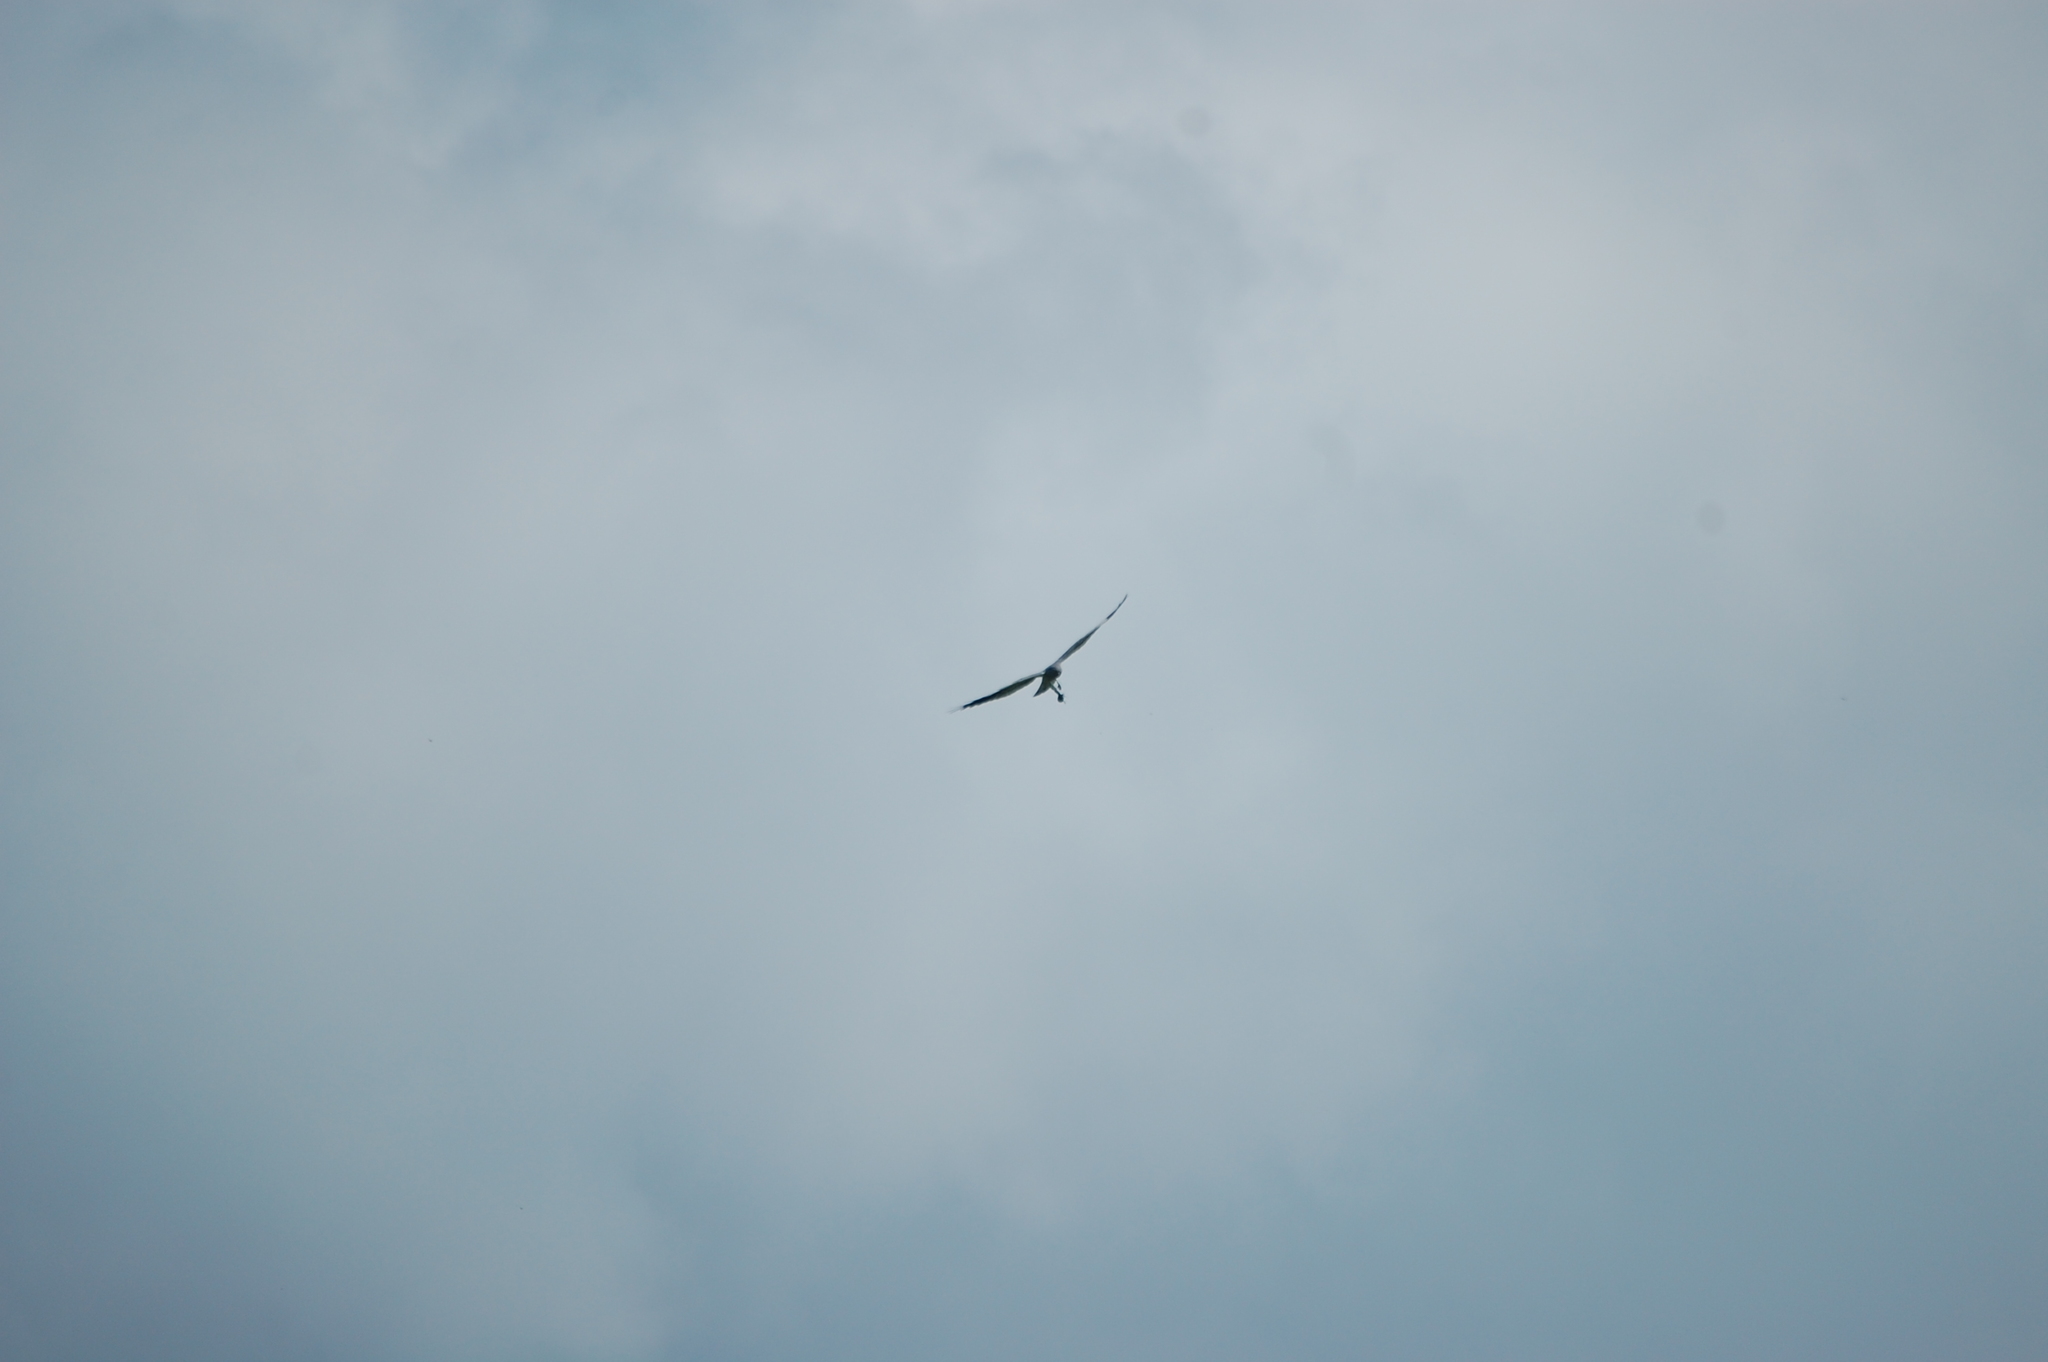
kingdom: Animalia
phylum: Chordata
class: Aves
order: Accipitriformes
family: Accipitridae
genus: Circus
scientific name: Circus pygargus
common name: Montagu's harrier
